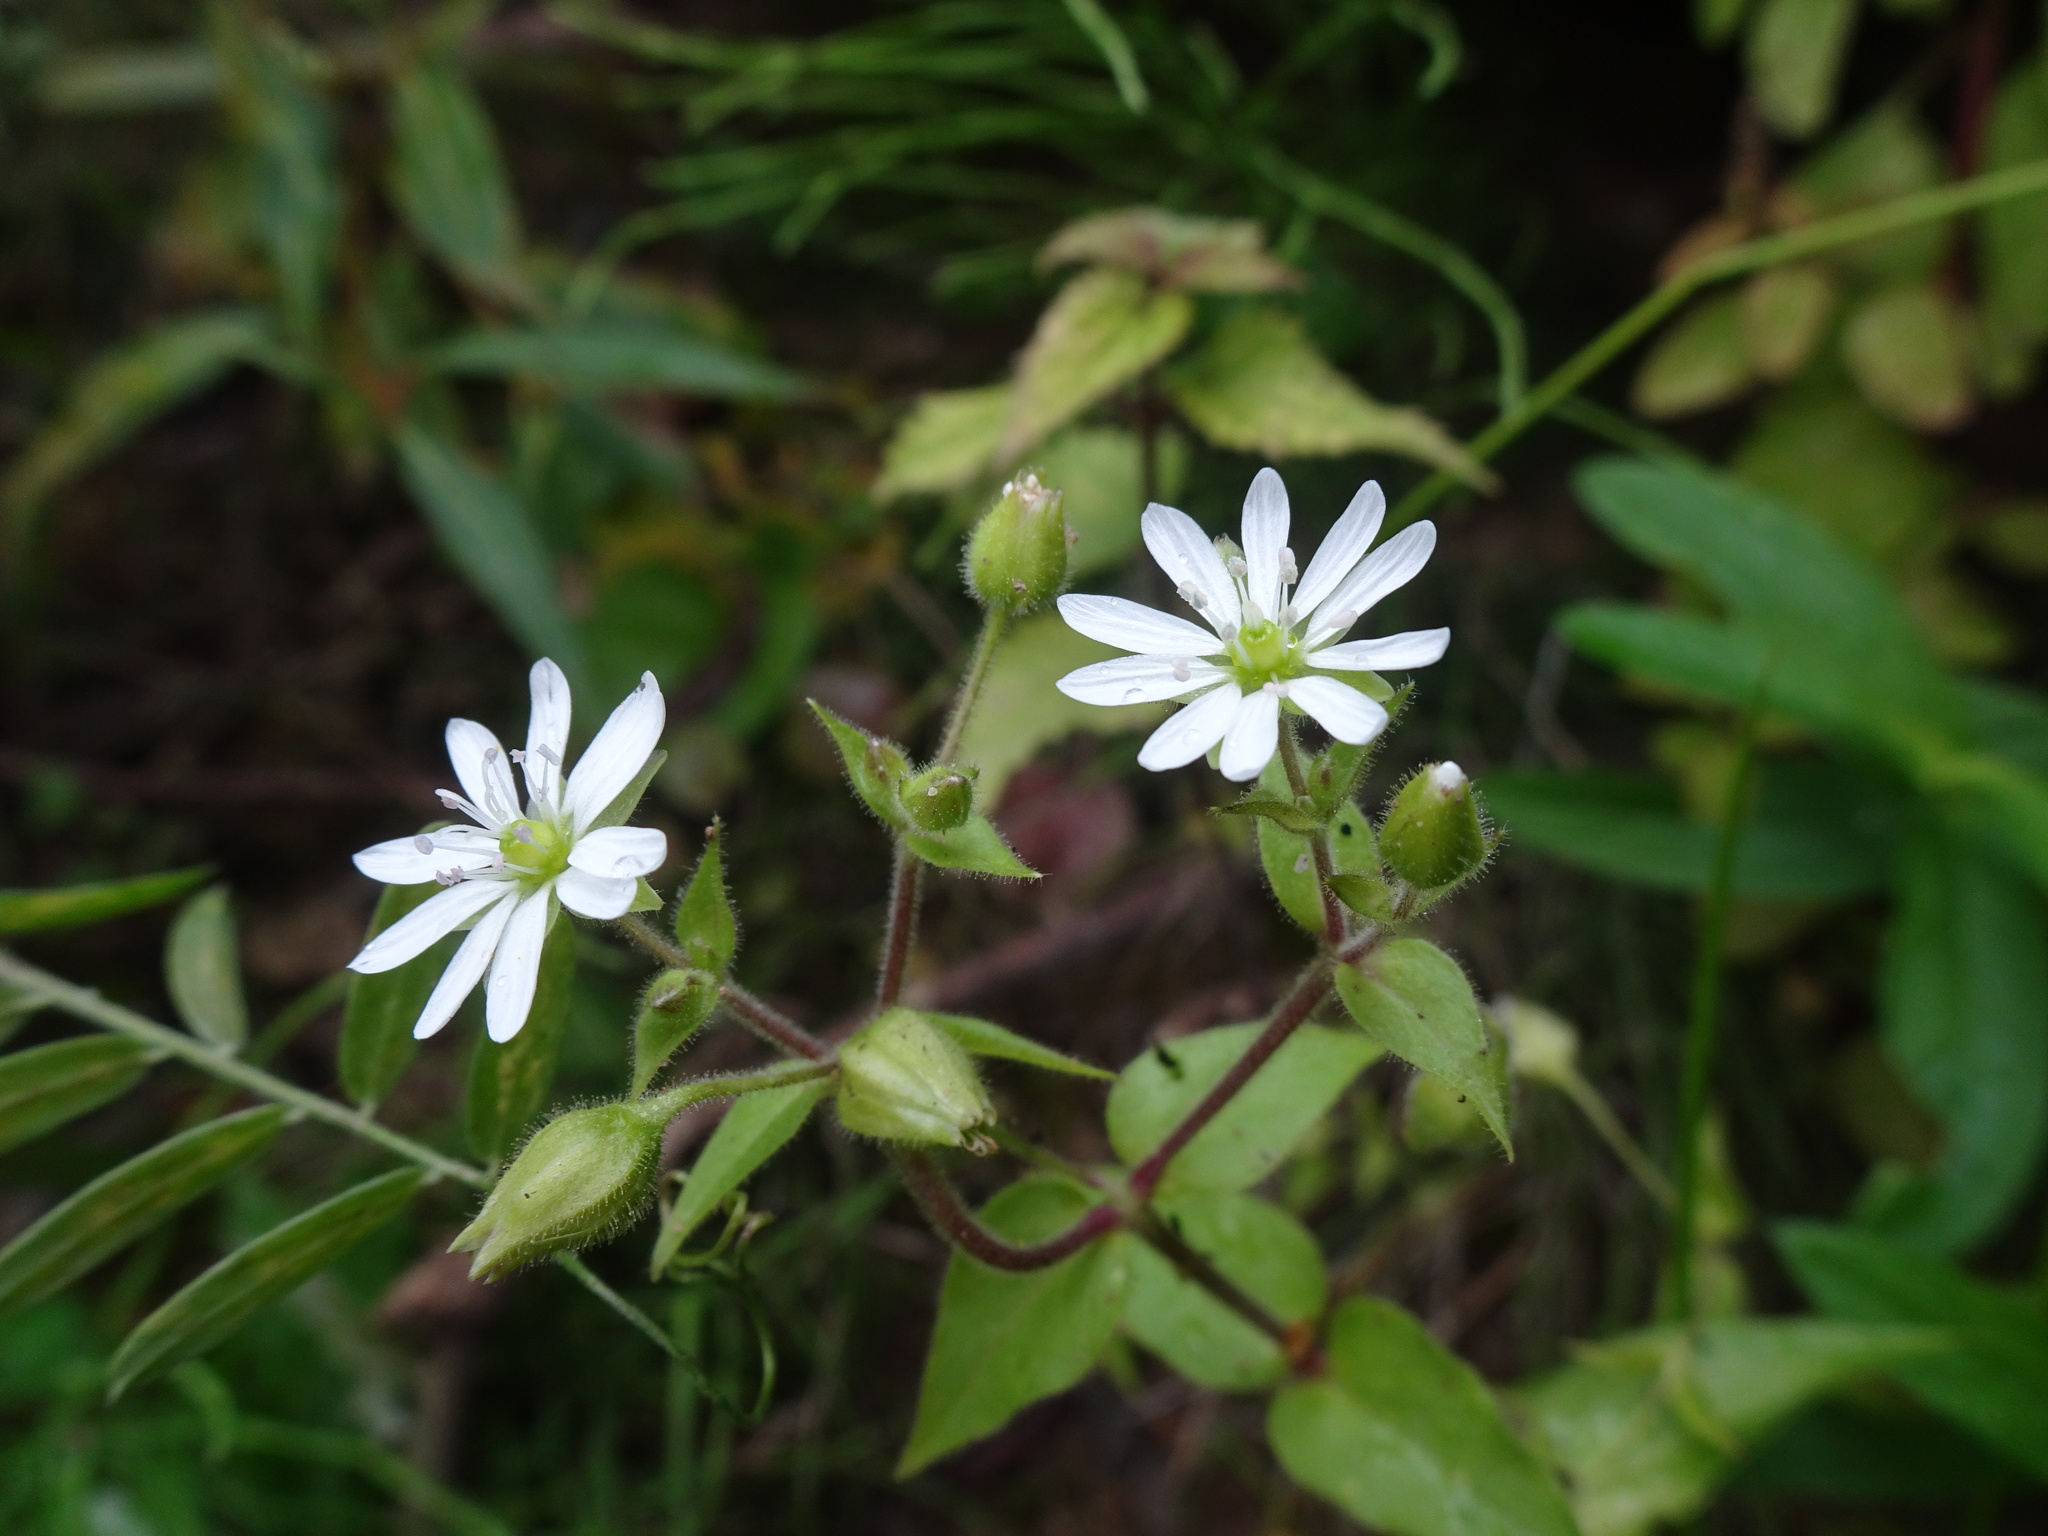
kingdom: Plantae
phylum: Tracheophyta
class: Magnoliopsida
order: Caryophyllales
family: Caryophyllaceae
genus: Stellaria
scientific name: Stellaria aquatica
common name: Water chickweed
